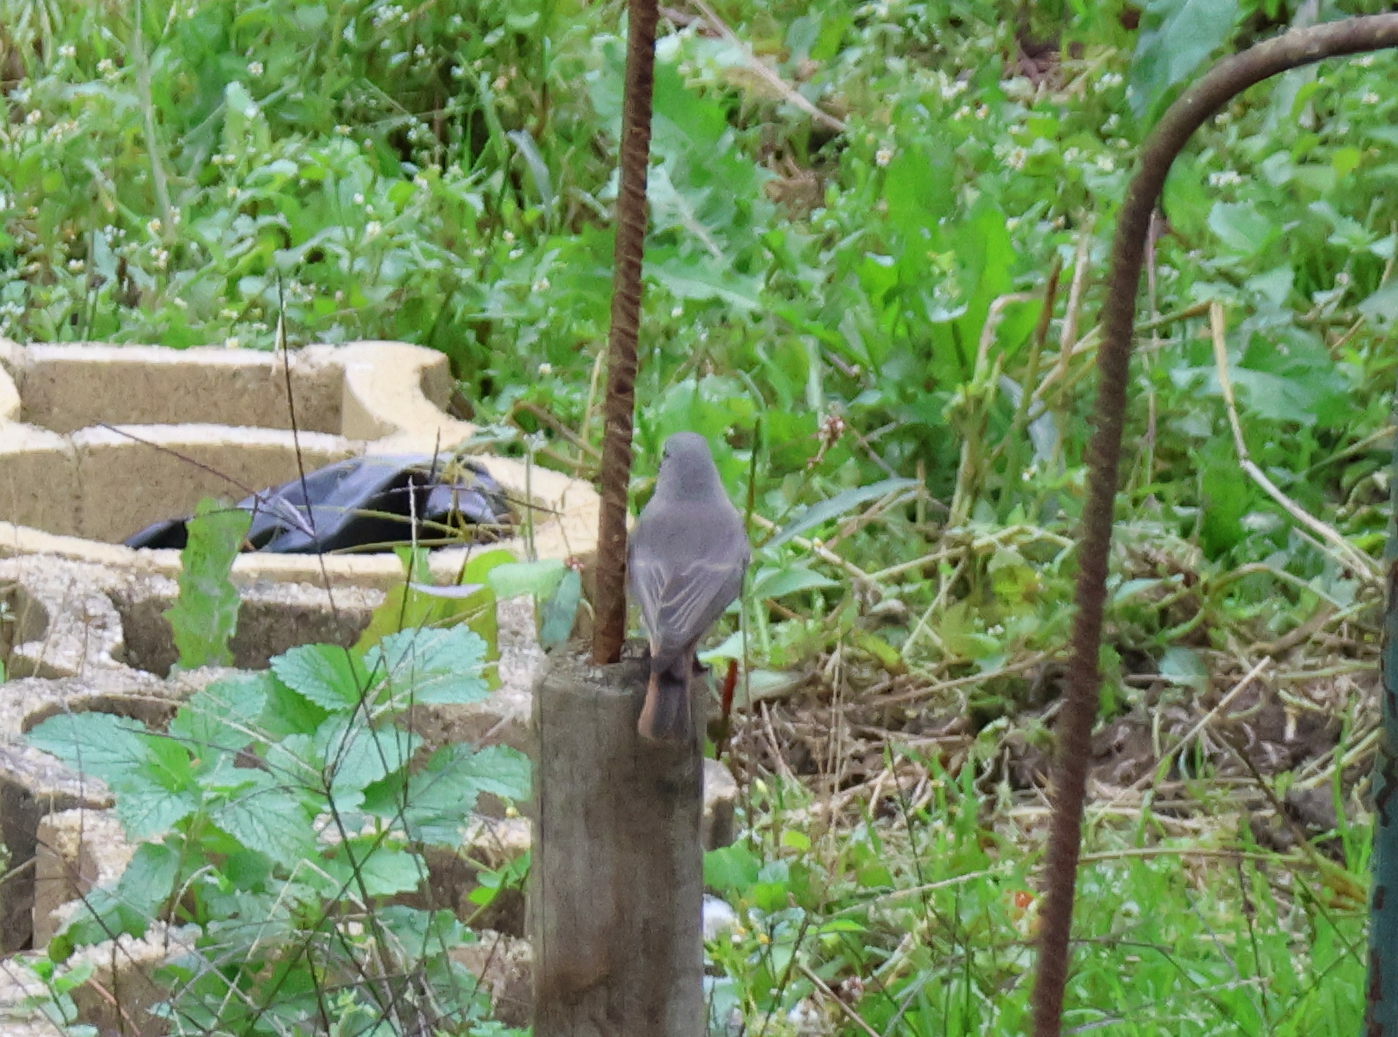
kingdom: Animalia
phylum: Chordata
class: Aves
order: Passeriformes
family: Muscicapidae
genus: Phoenicurus
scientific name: Phoenicurus ochruros
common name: Black redstart
